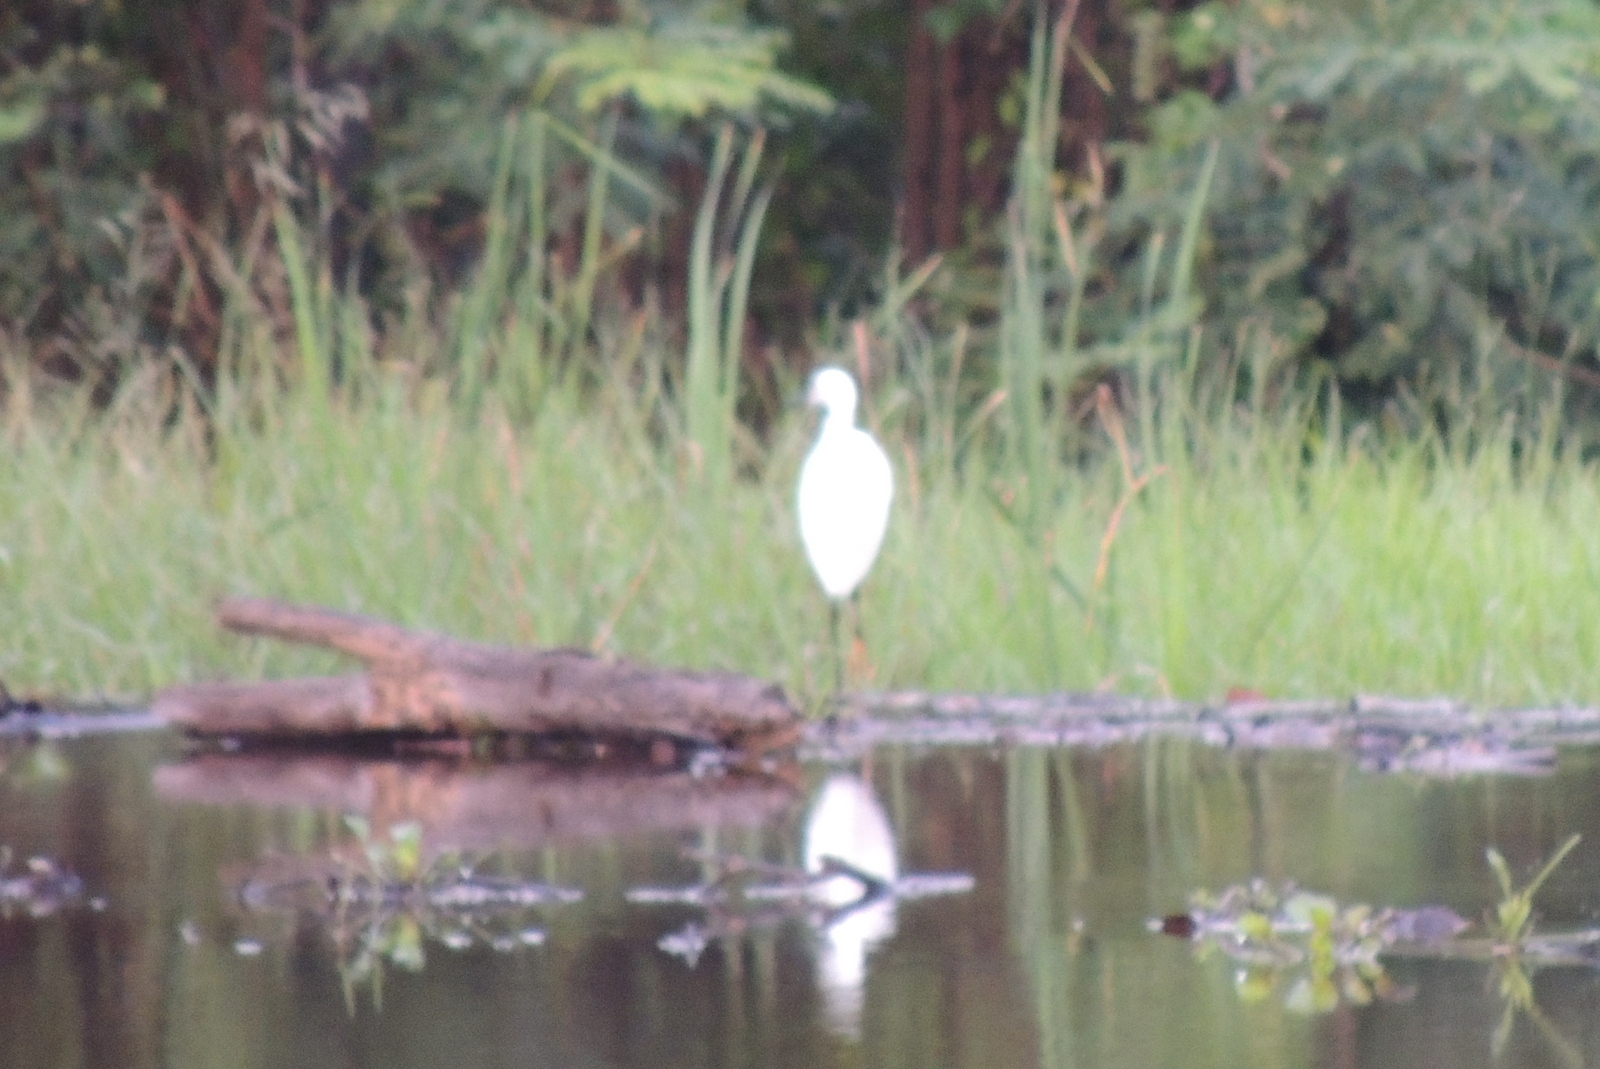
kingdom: Animalia
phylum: Chordata
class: Aves
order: Pelecaniformes
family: Ardeidae
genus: Egretta
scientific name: Egretta garzetta
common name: Little egret
